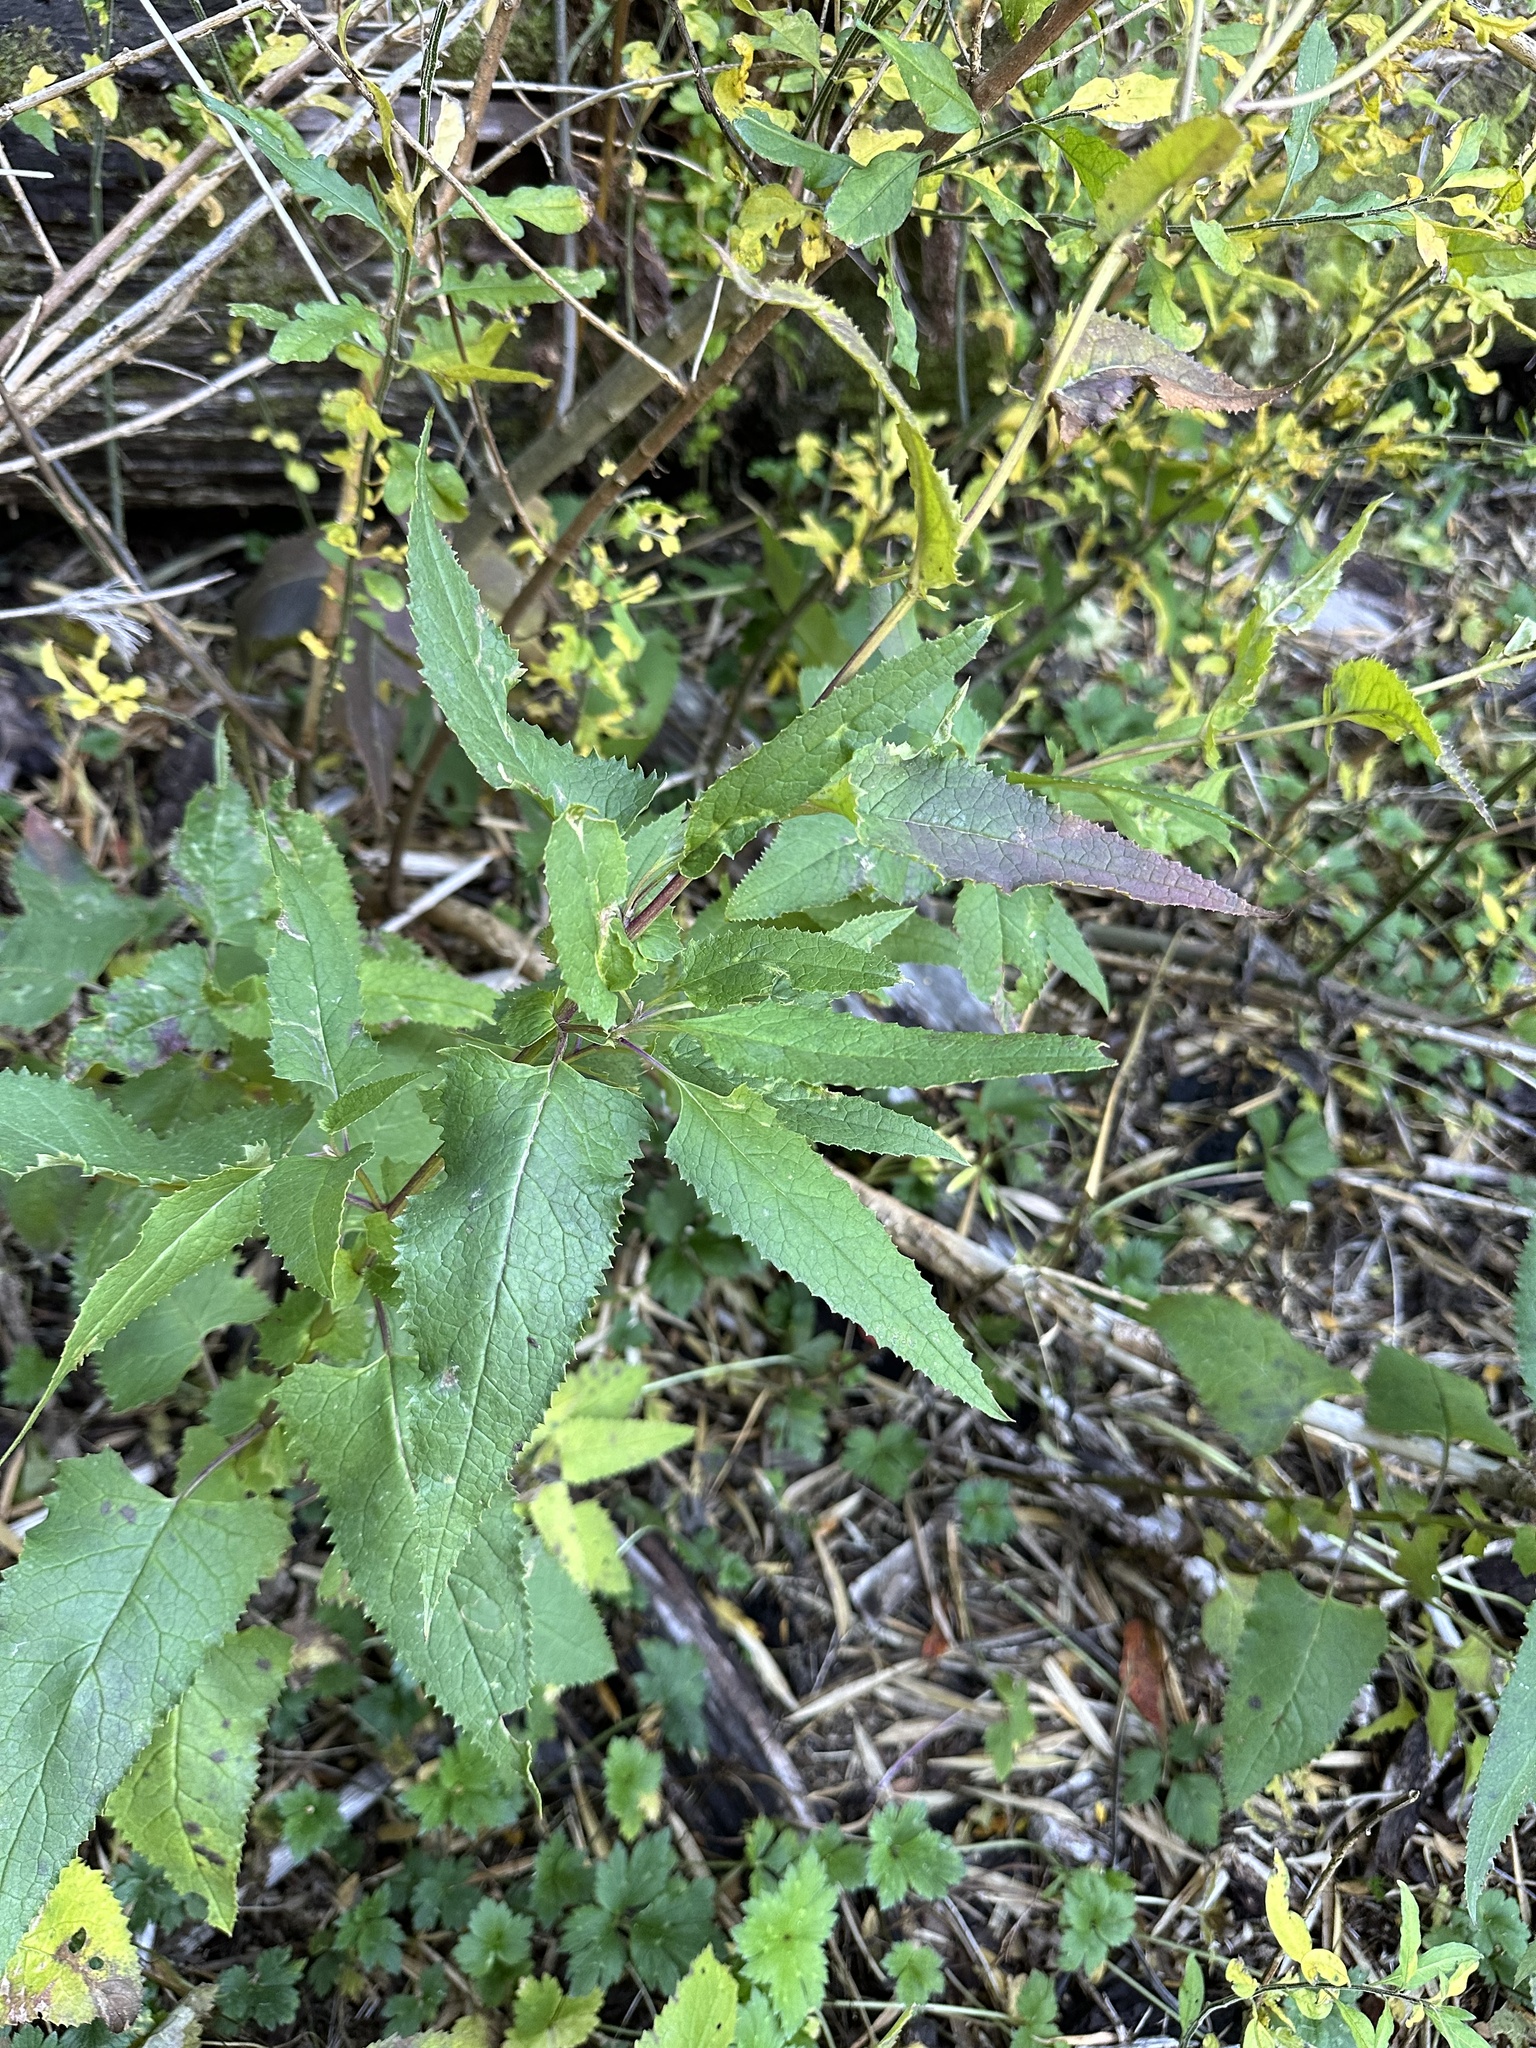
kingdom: Plantae
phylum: Tracheophyta
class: Magnoliopsida
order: Asterales
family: Asteraceae
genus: Senecio
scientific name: Senecio otites
